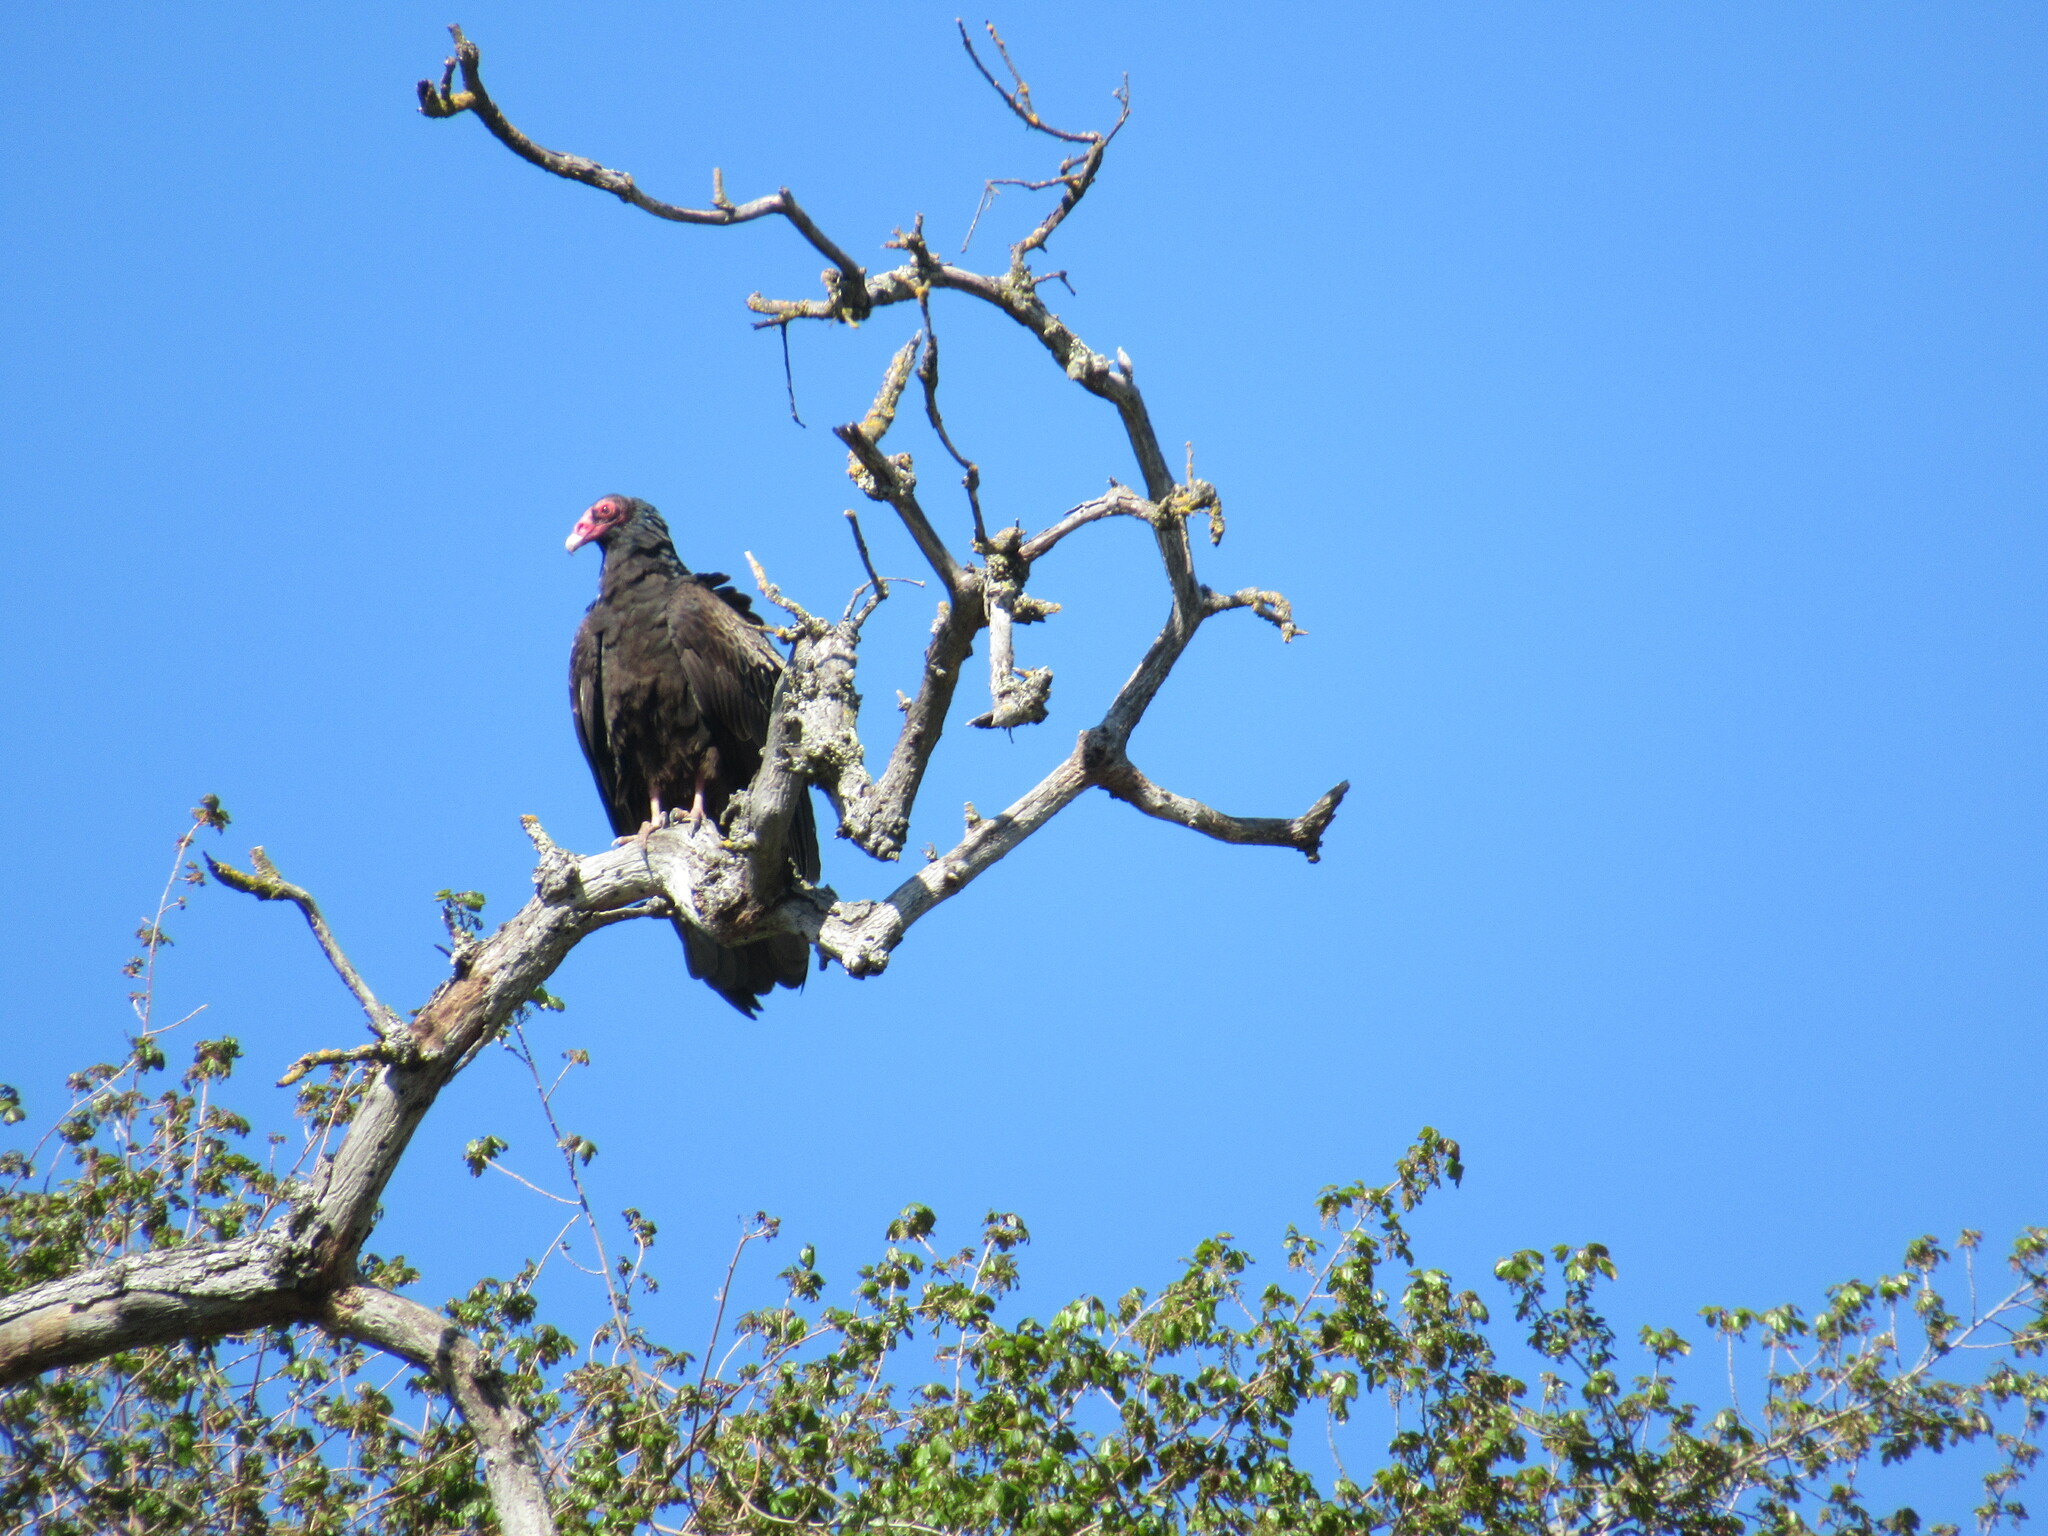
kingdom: Animalia
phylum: Chordata
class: Aves
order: Accipitriformes
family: Cathartidae
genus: Cathartes
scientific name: Cathartes aura
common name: Turkey vulture
